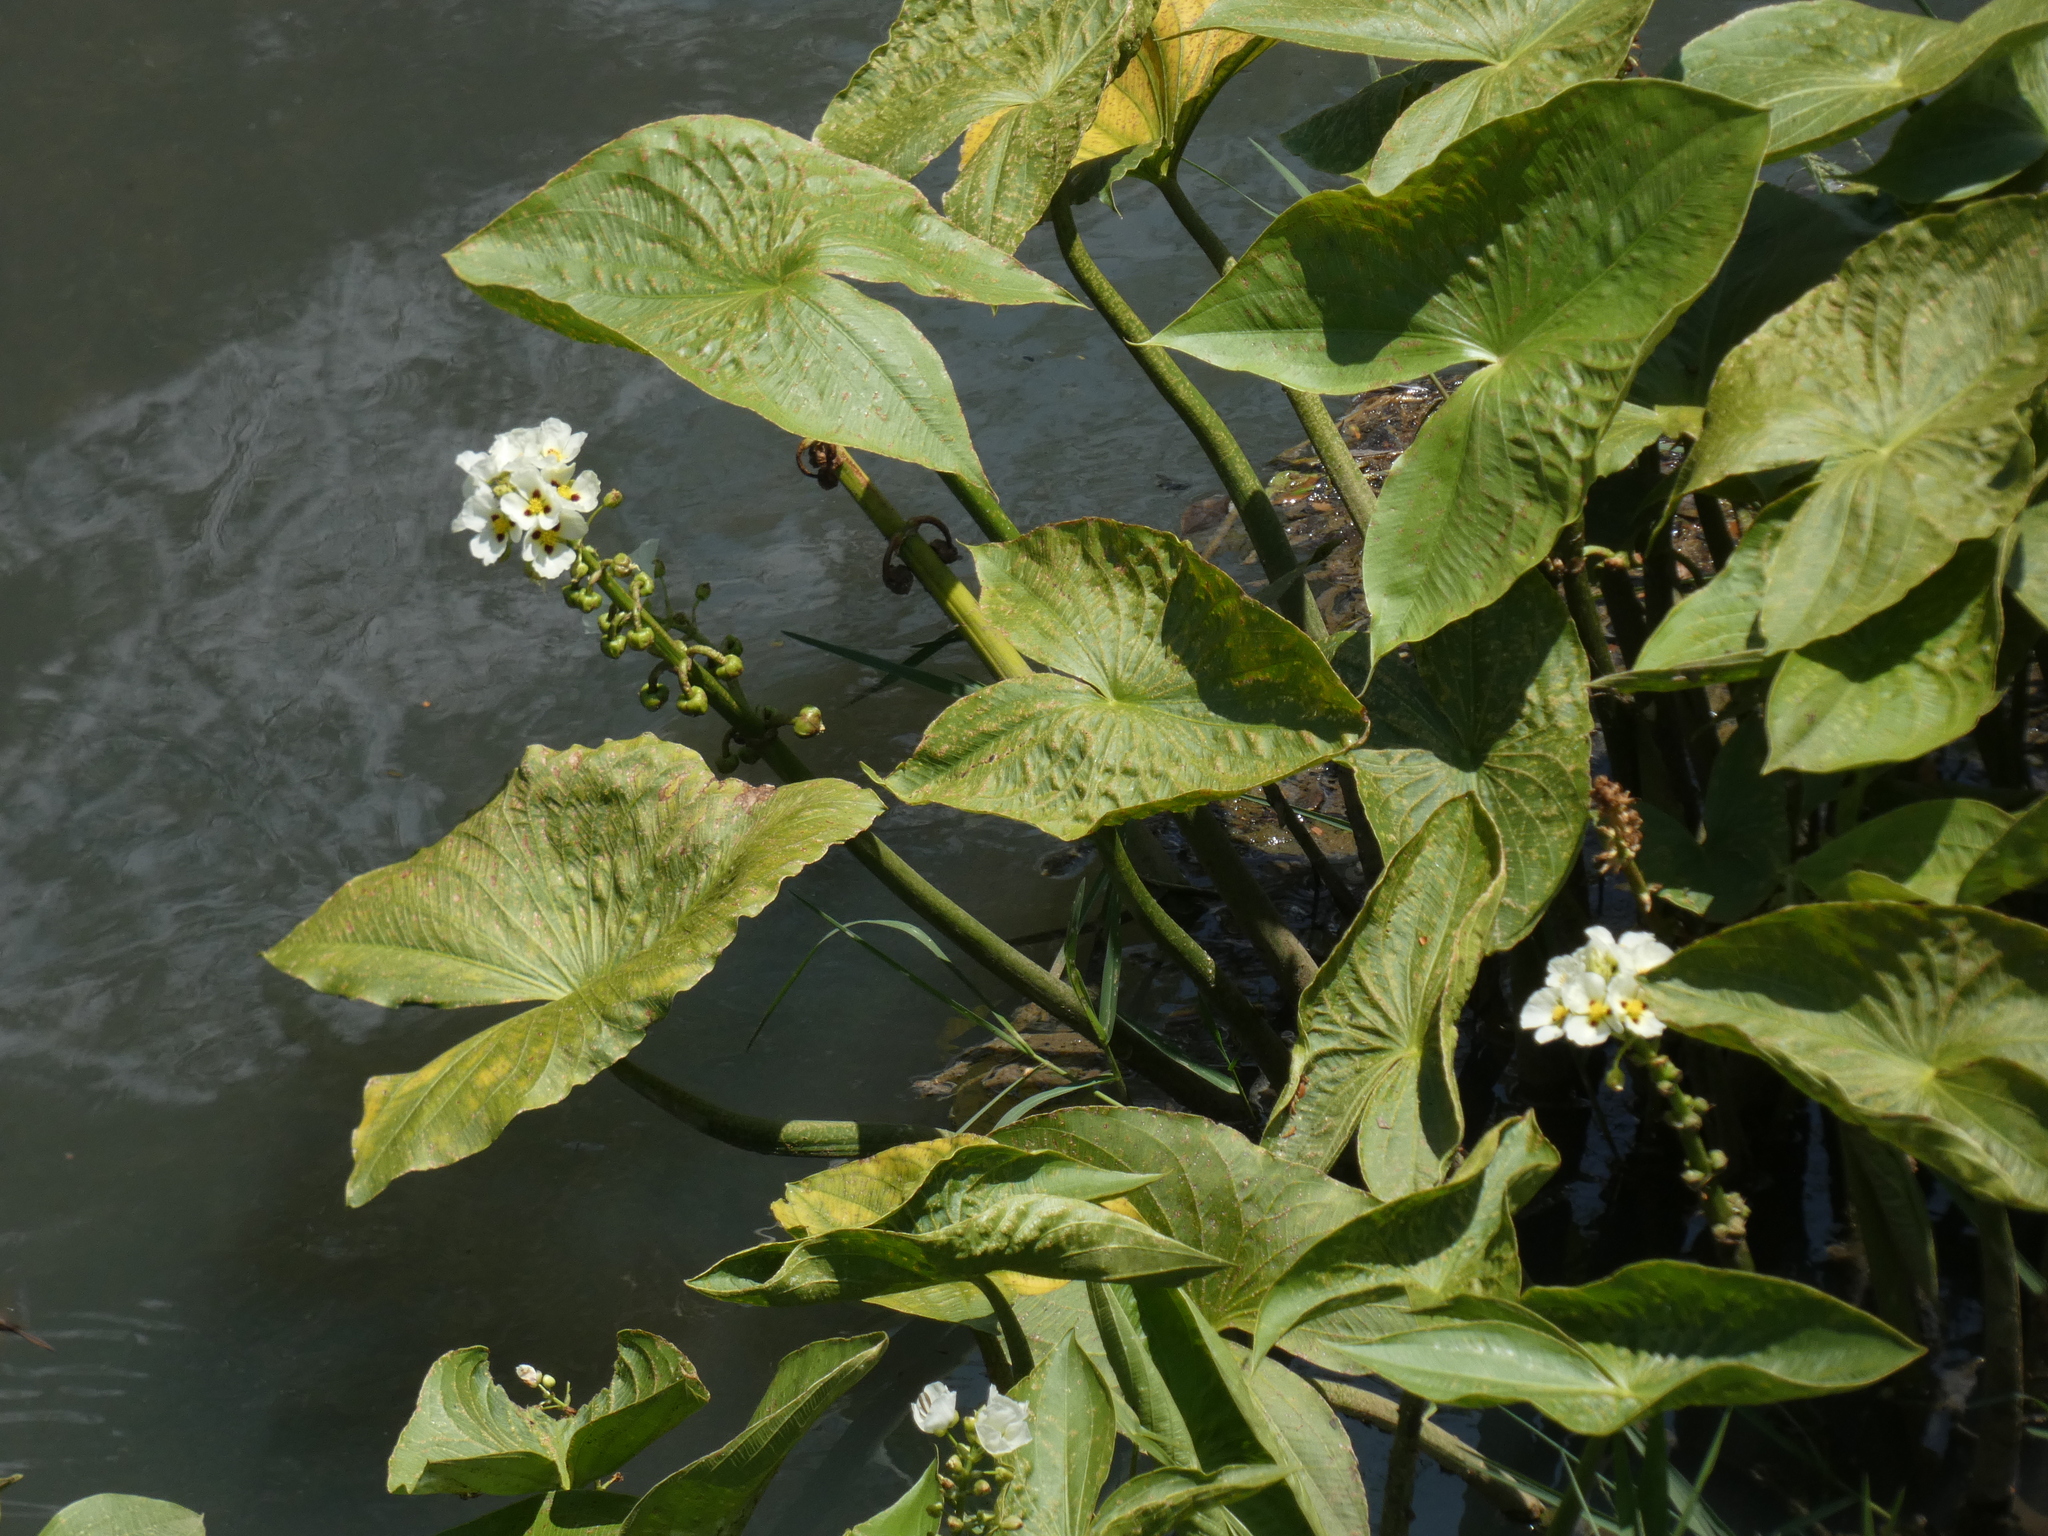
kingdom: Plantae
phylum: Tracheophyta
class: Liliopsida
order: Alismatales
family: Alismataceae
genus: Sagittaria
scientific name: Sagittaria montevidensis
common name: Giant arrowhead
